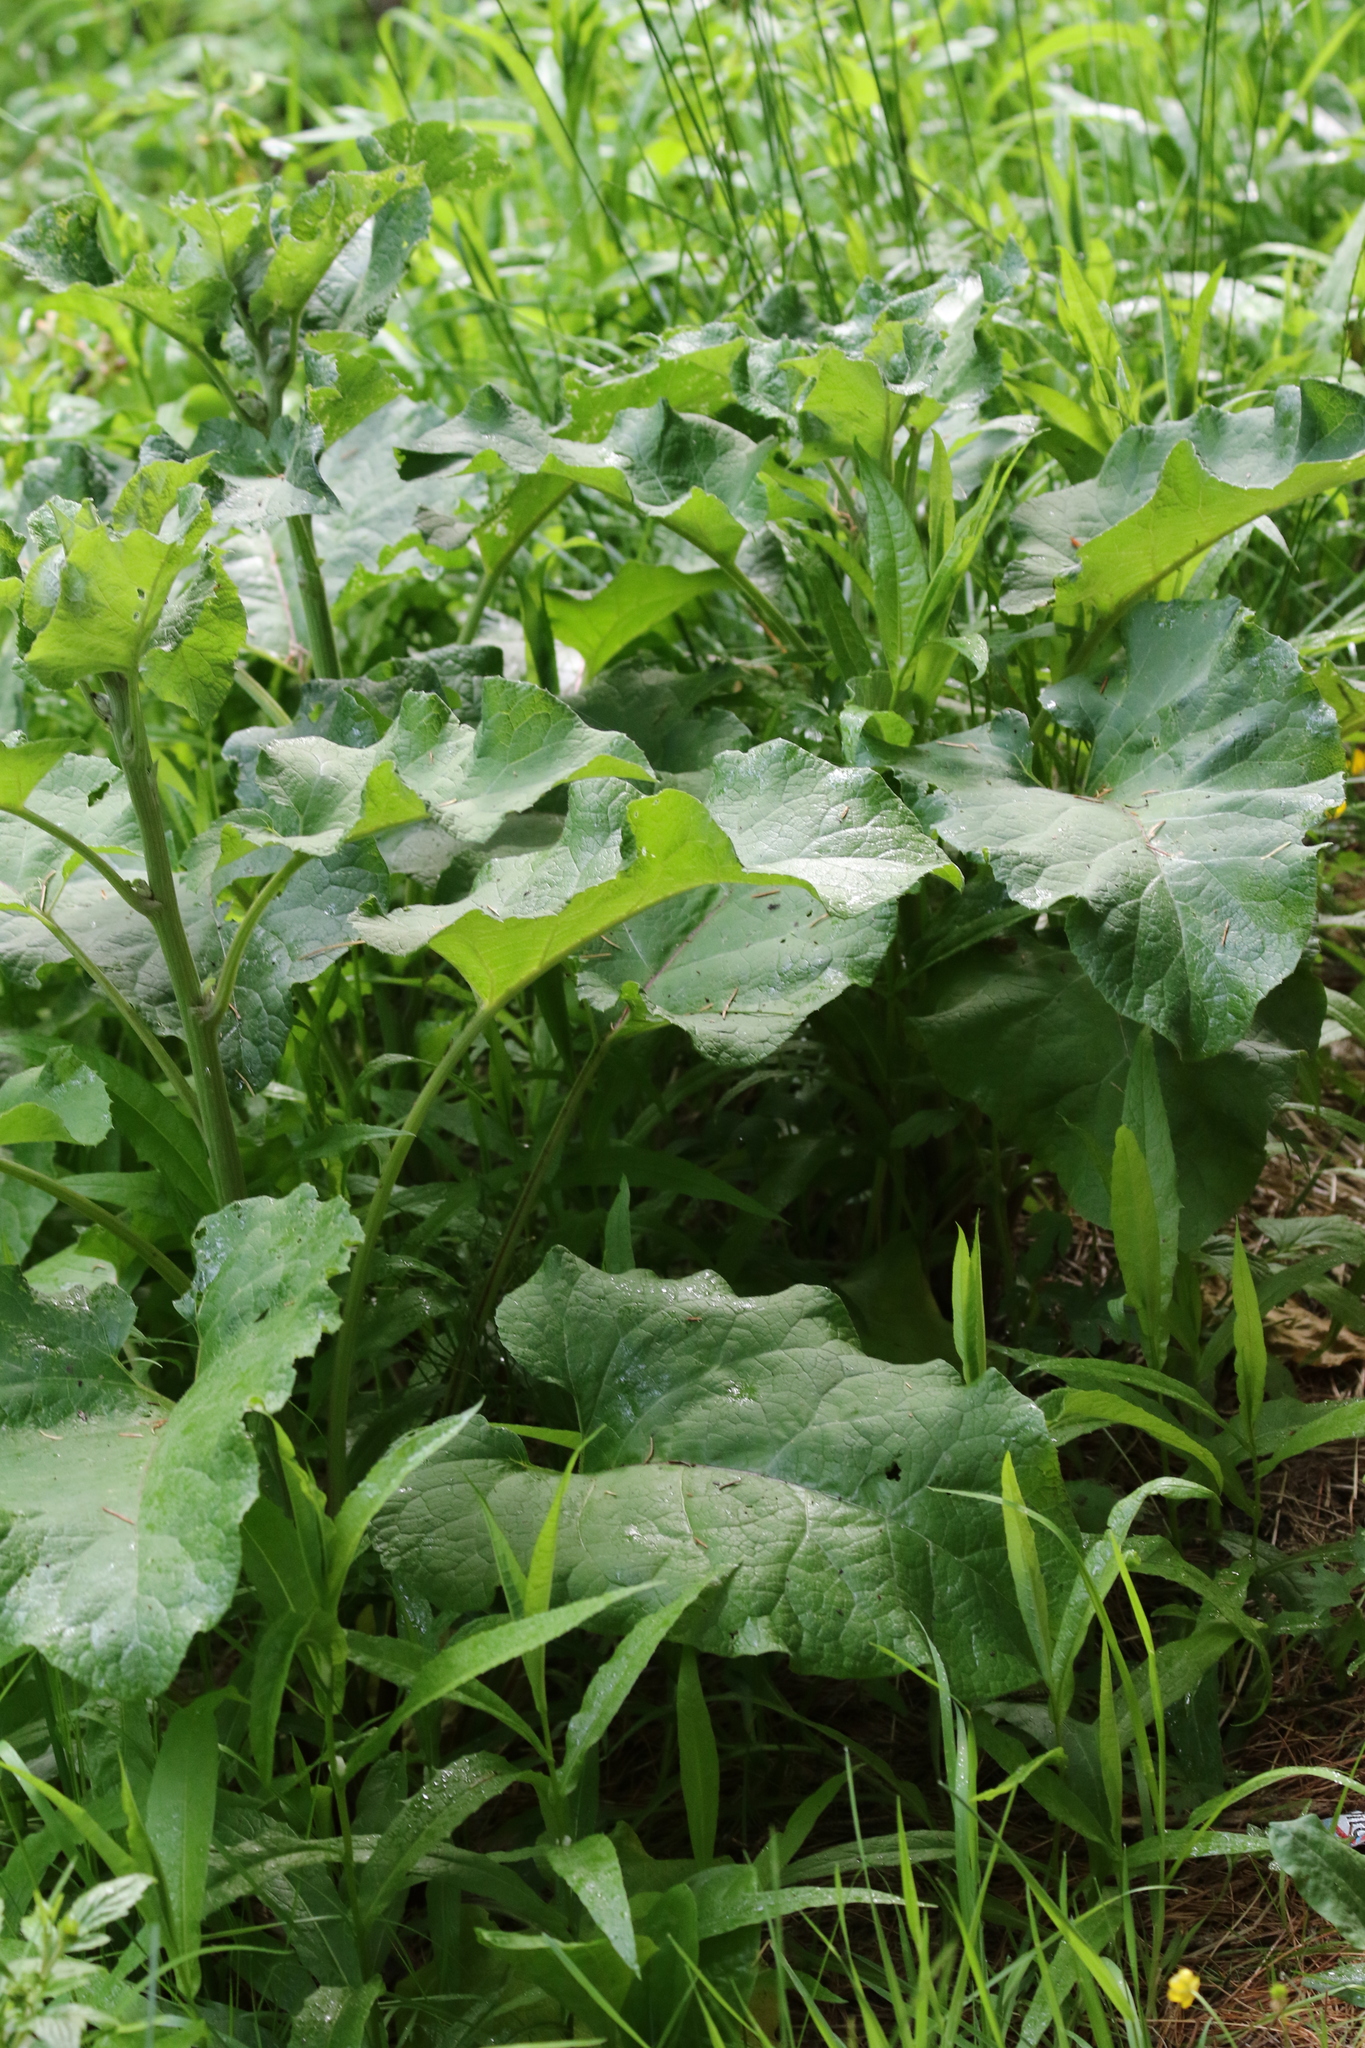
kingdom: Plantae
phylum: Tracheophyta
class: Magnoliopsida
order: Asterales
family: Asteraceae
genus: Arctium
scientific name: Arctium tomentosum
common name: Woolly burdock
